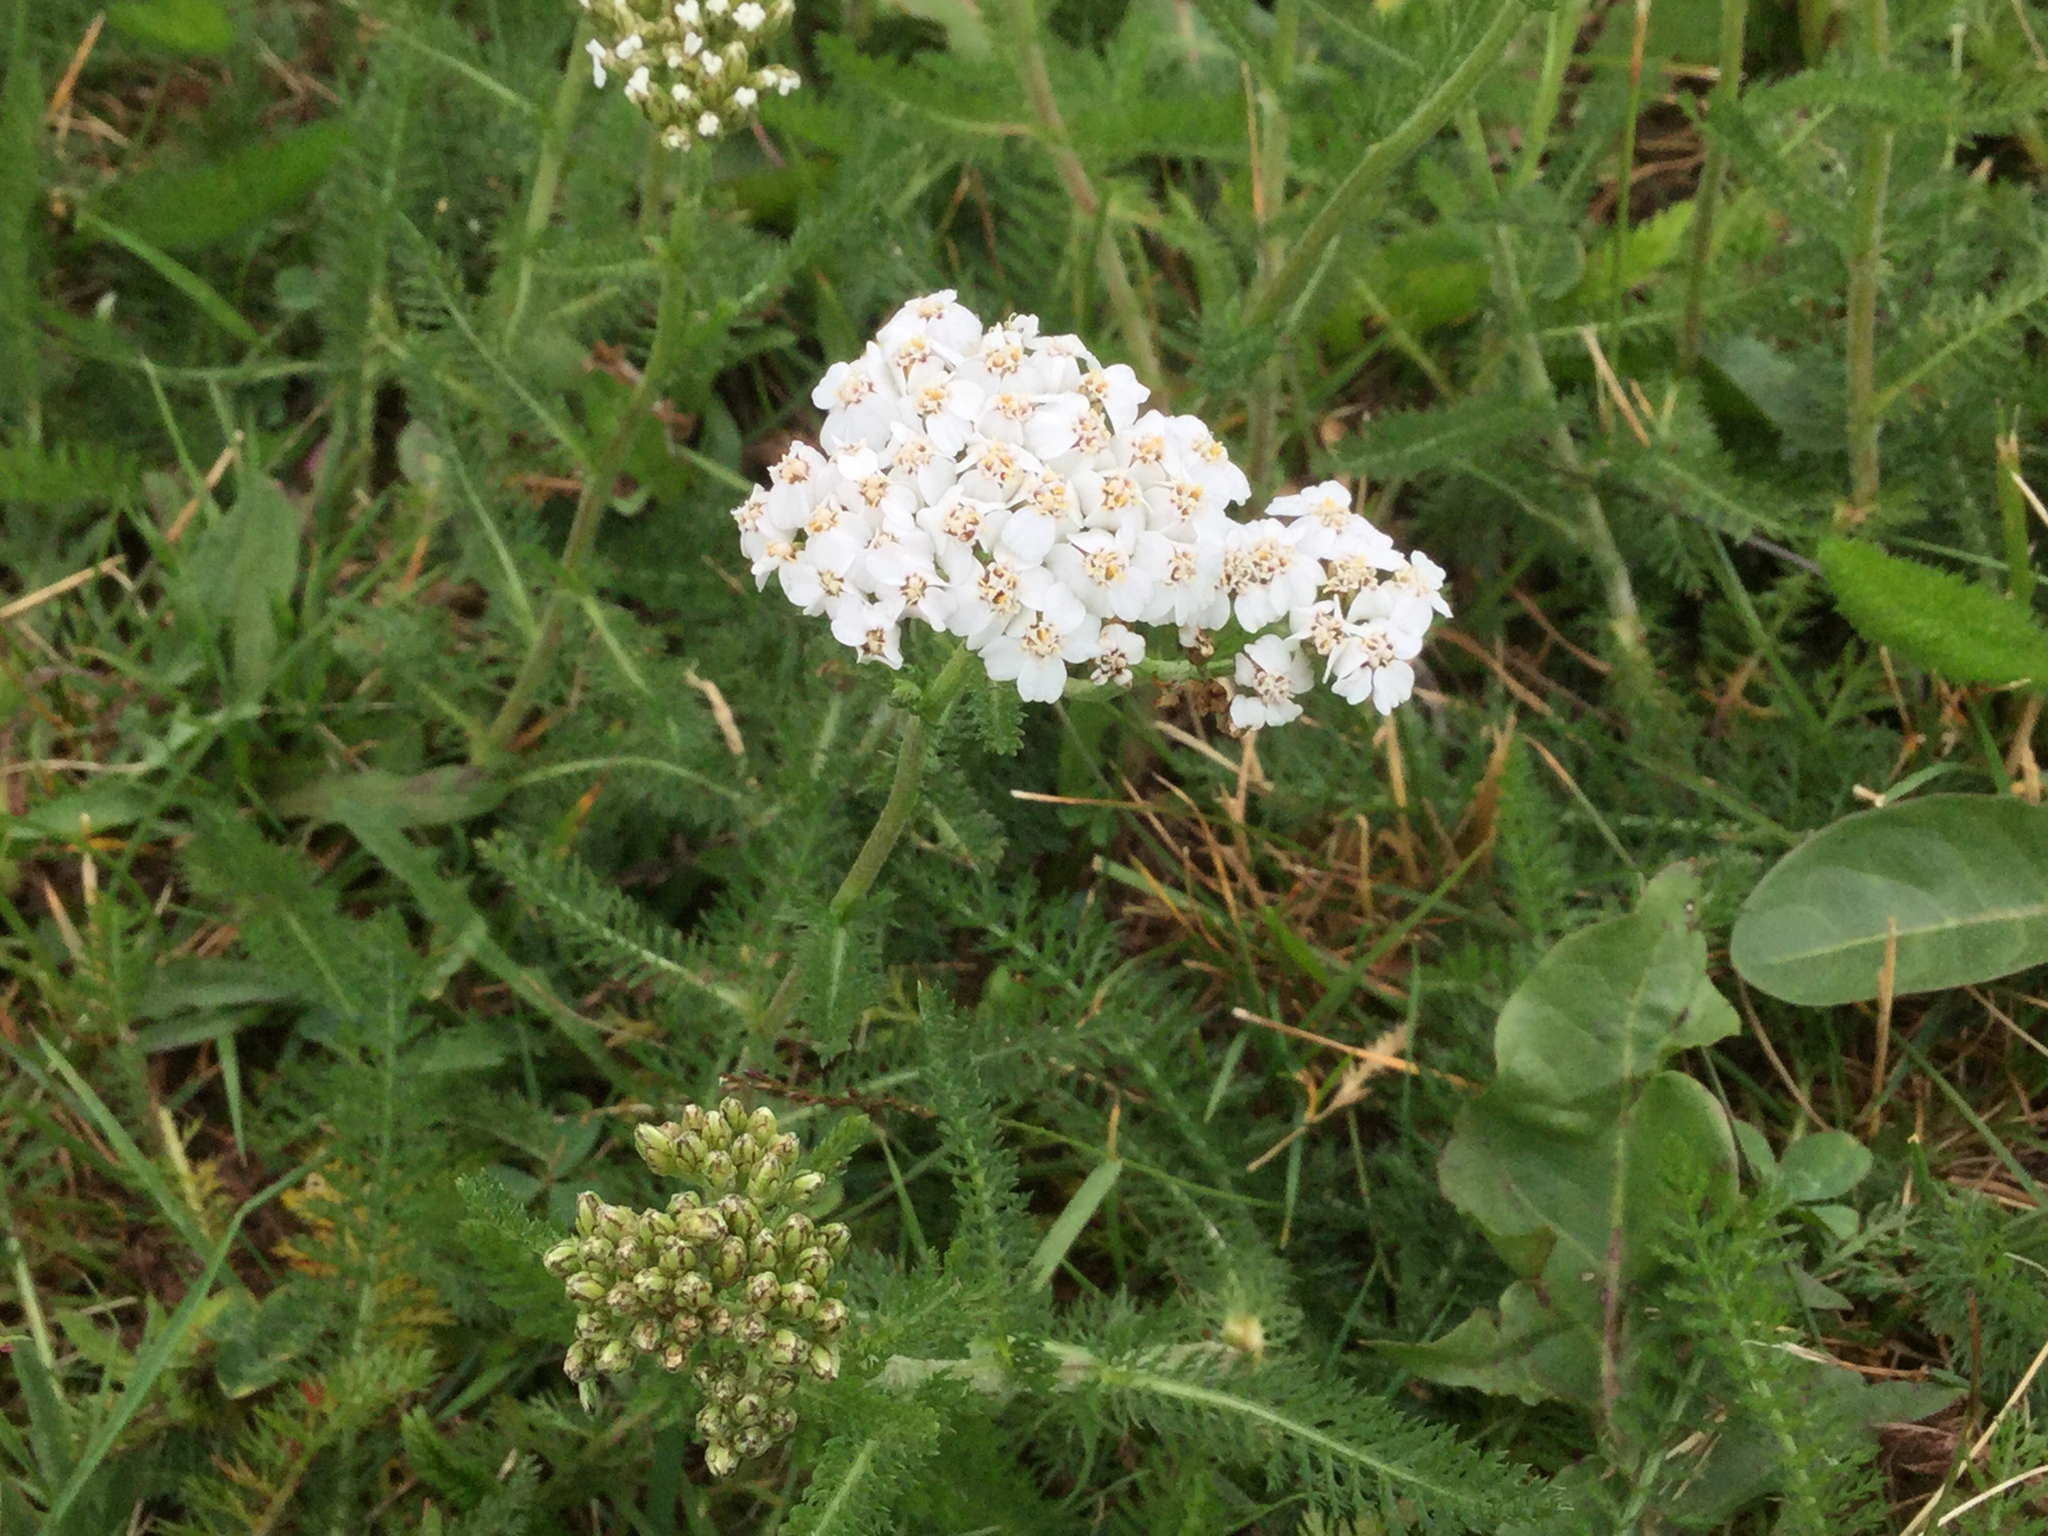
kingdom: Plantae
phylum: Tracheophyta
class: Magnoliopsida
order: Asterales
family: Asteraceae
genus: Achillea
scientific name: Achillea millefolium
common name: Yarrow
